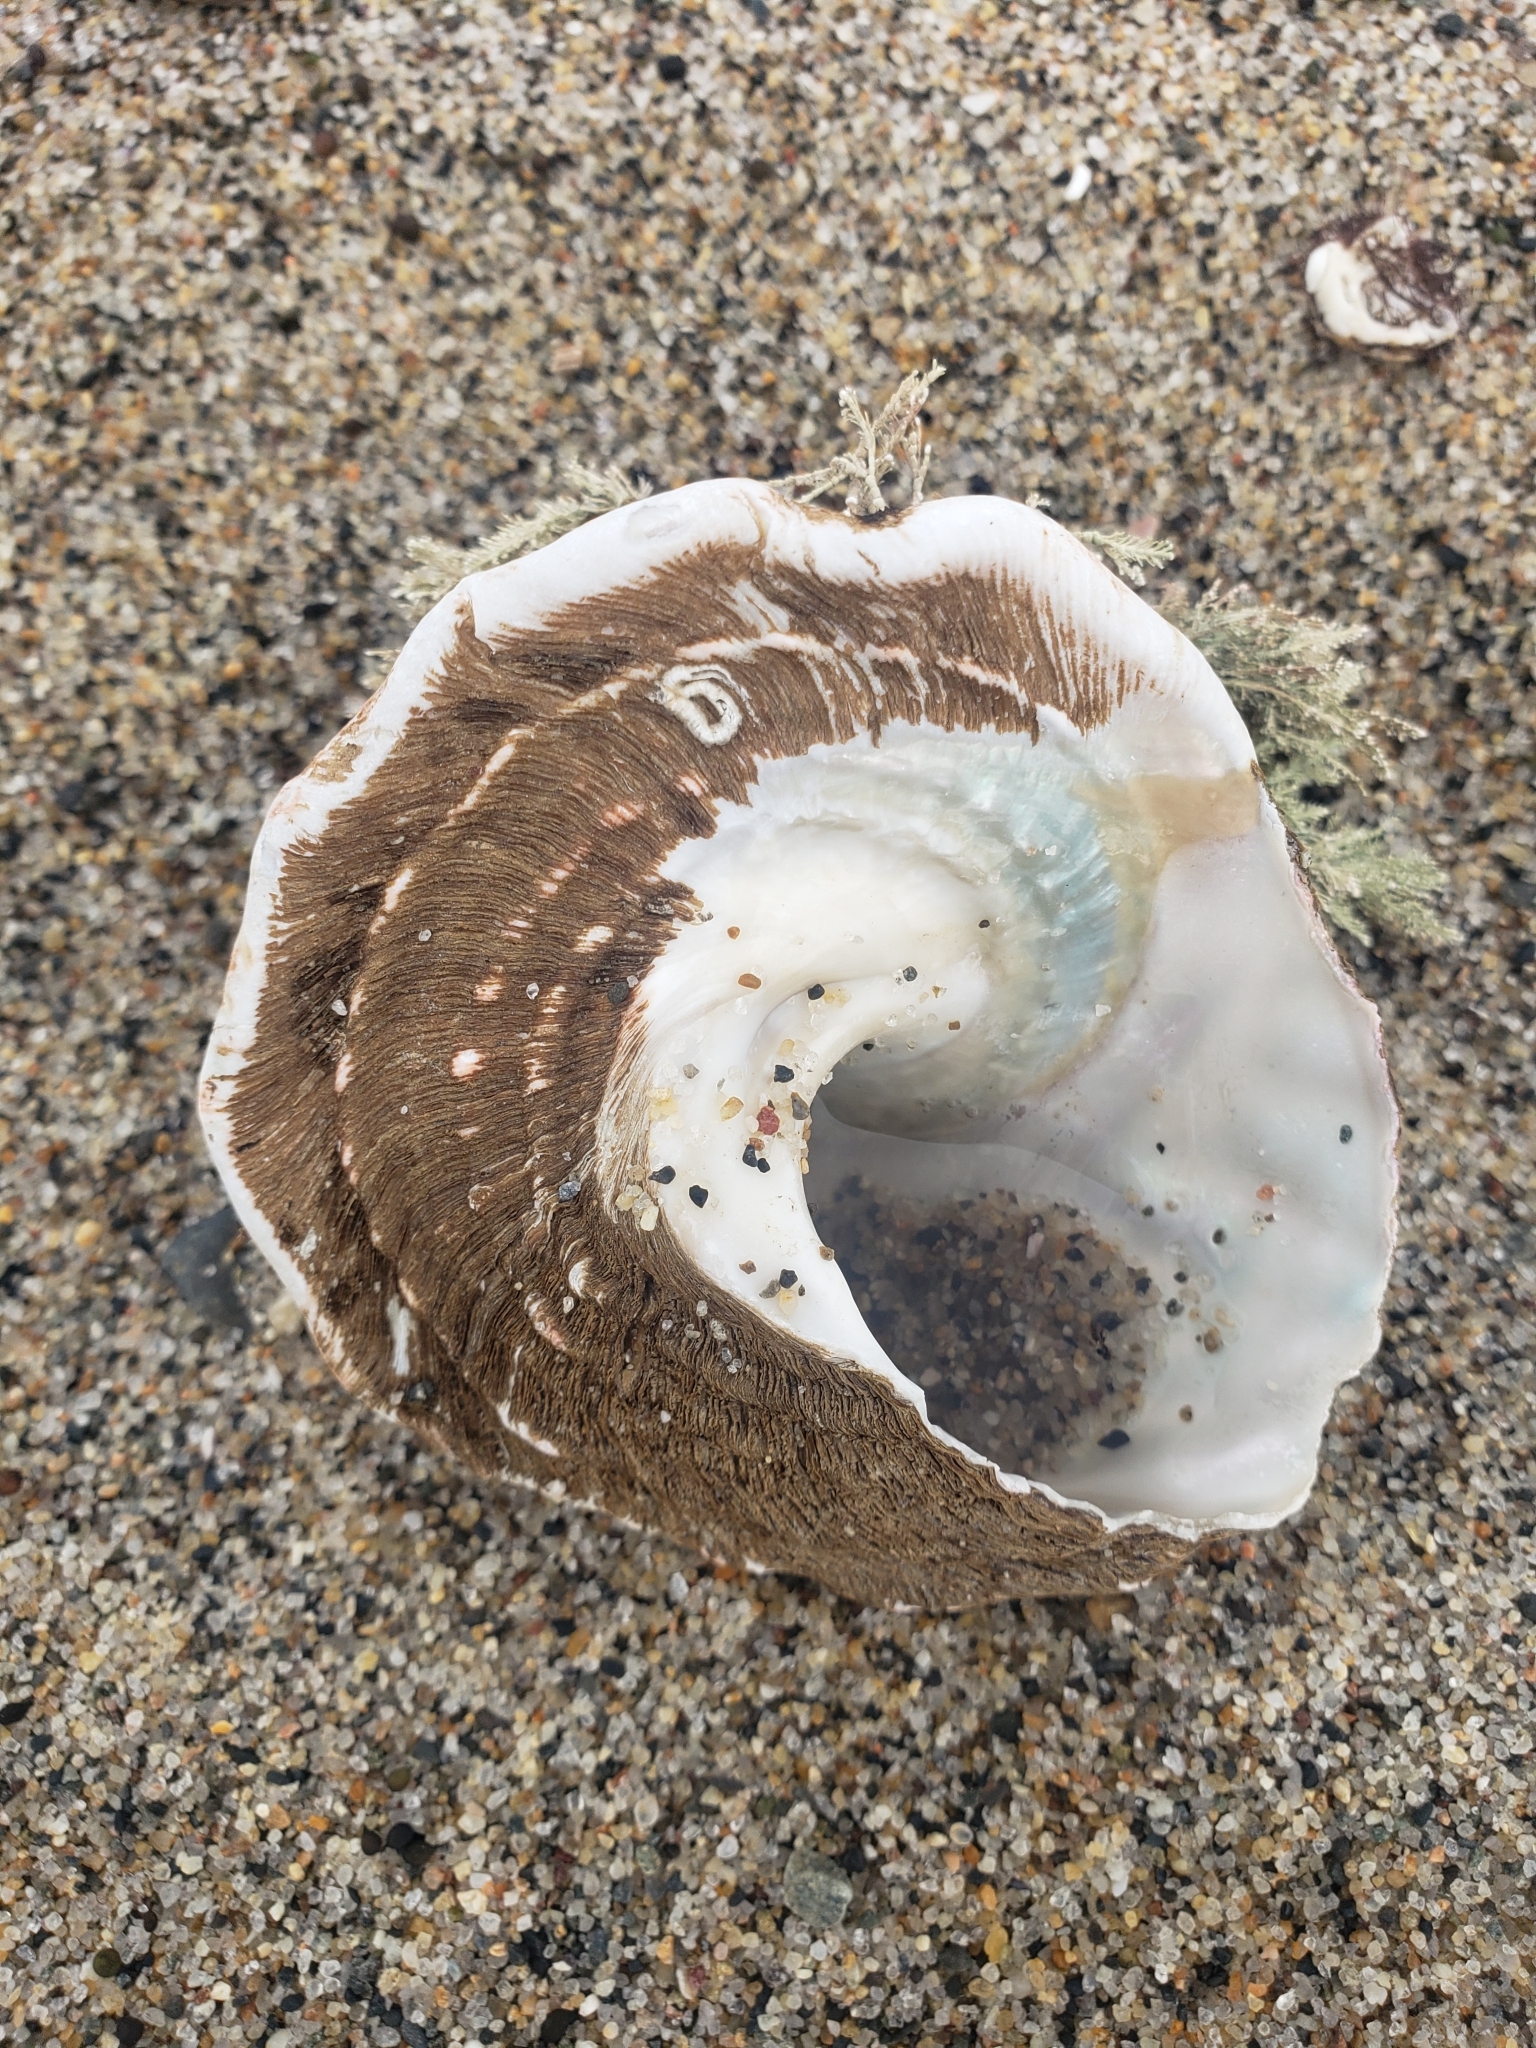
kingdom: Animalia
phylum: Mollusca
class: Gastropoda
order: Trochida
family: Turbinidae
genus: Megastraea
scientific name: Megastraea undosa
